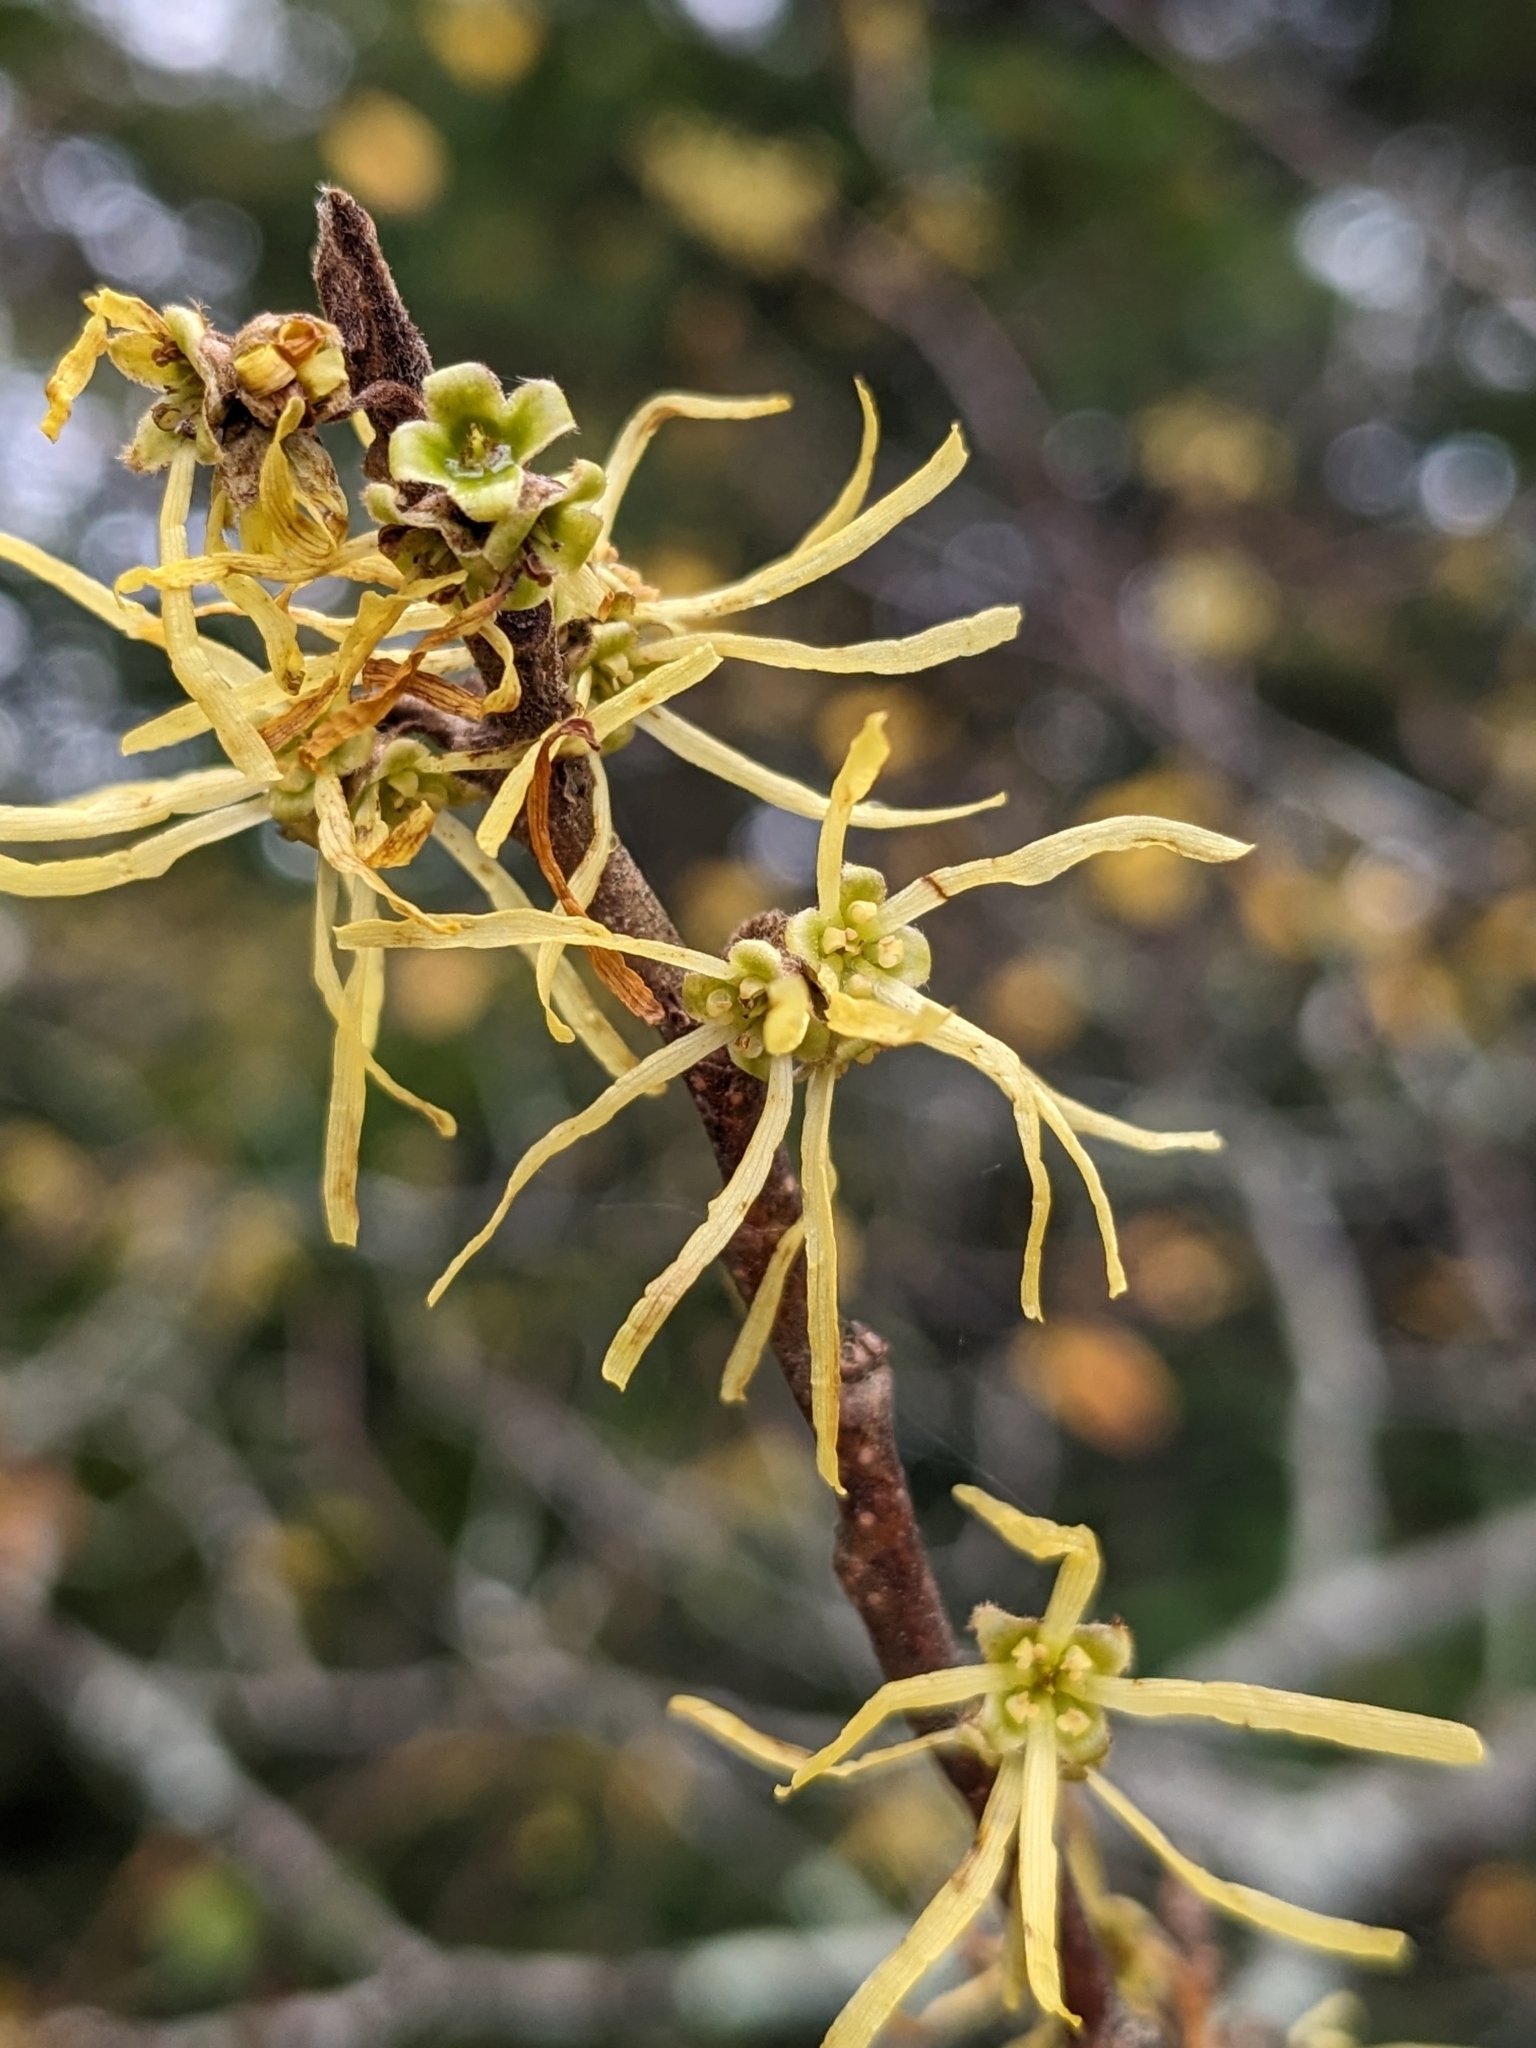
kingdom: Plantae
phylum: Tracheophyta
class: Magnoliopsida
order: Saxifragales
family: Hamamelidaceae
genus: Hamamelis
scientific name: Hamamelis virginiana
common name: Witch-hazel
